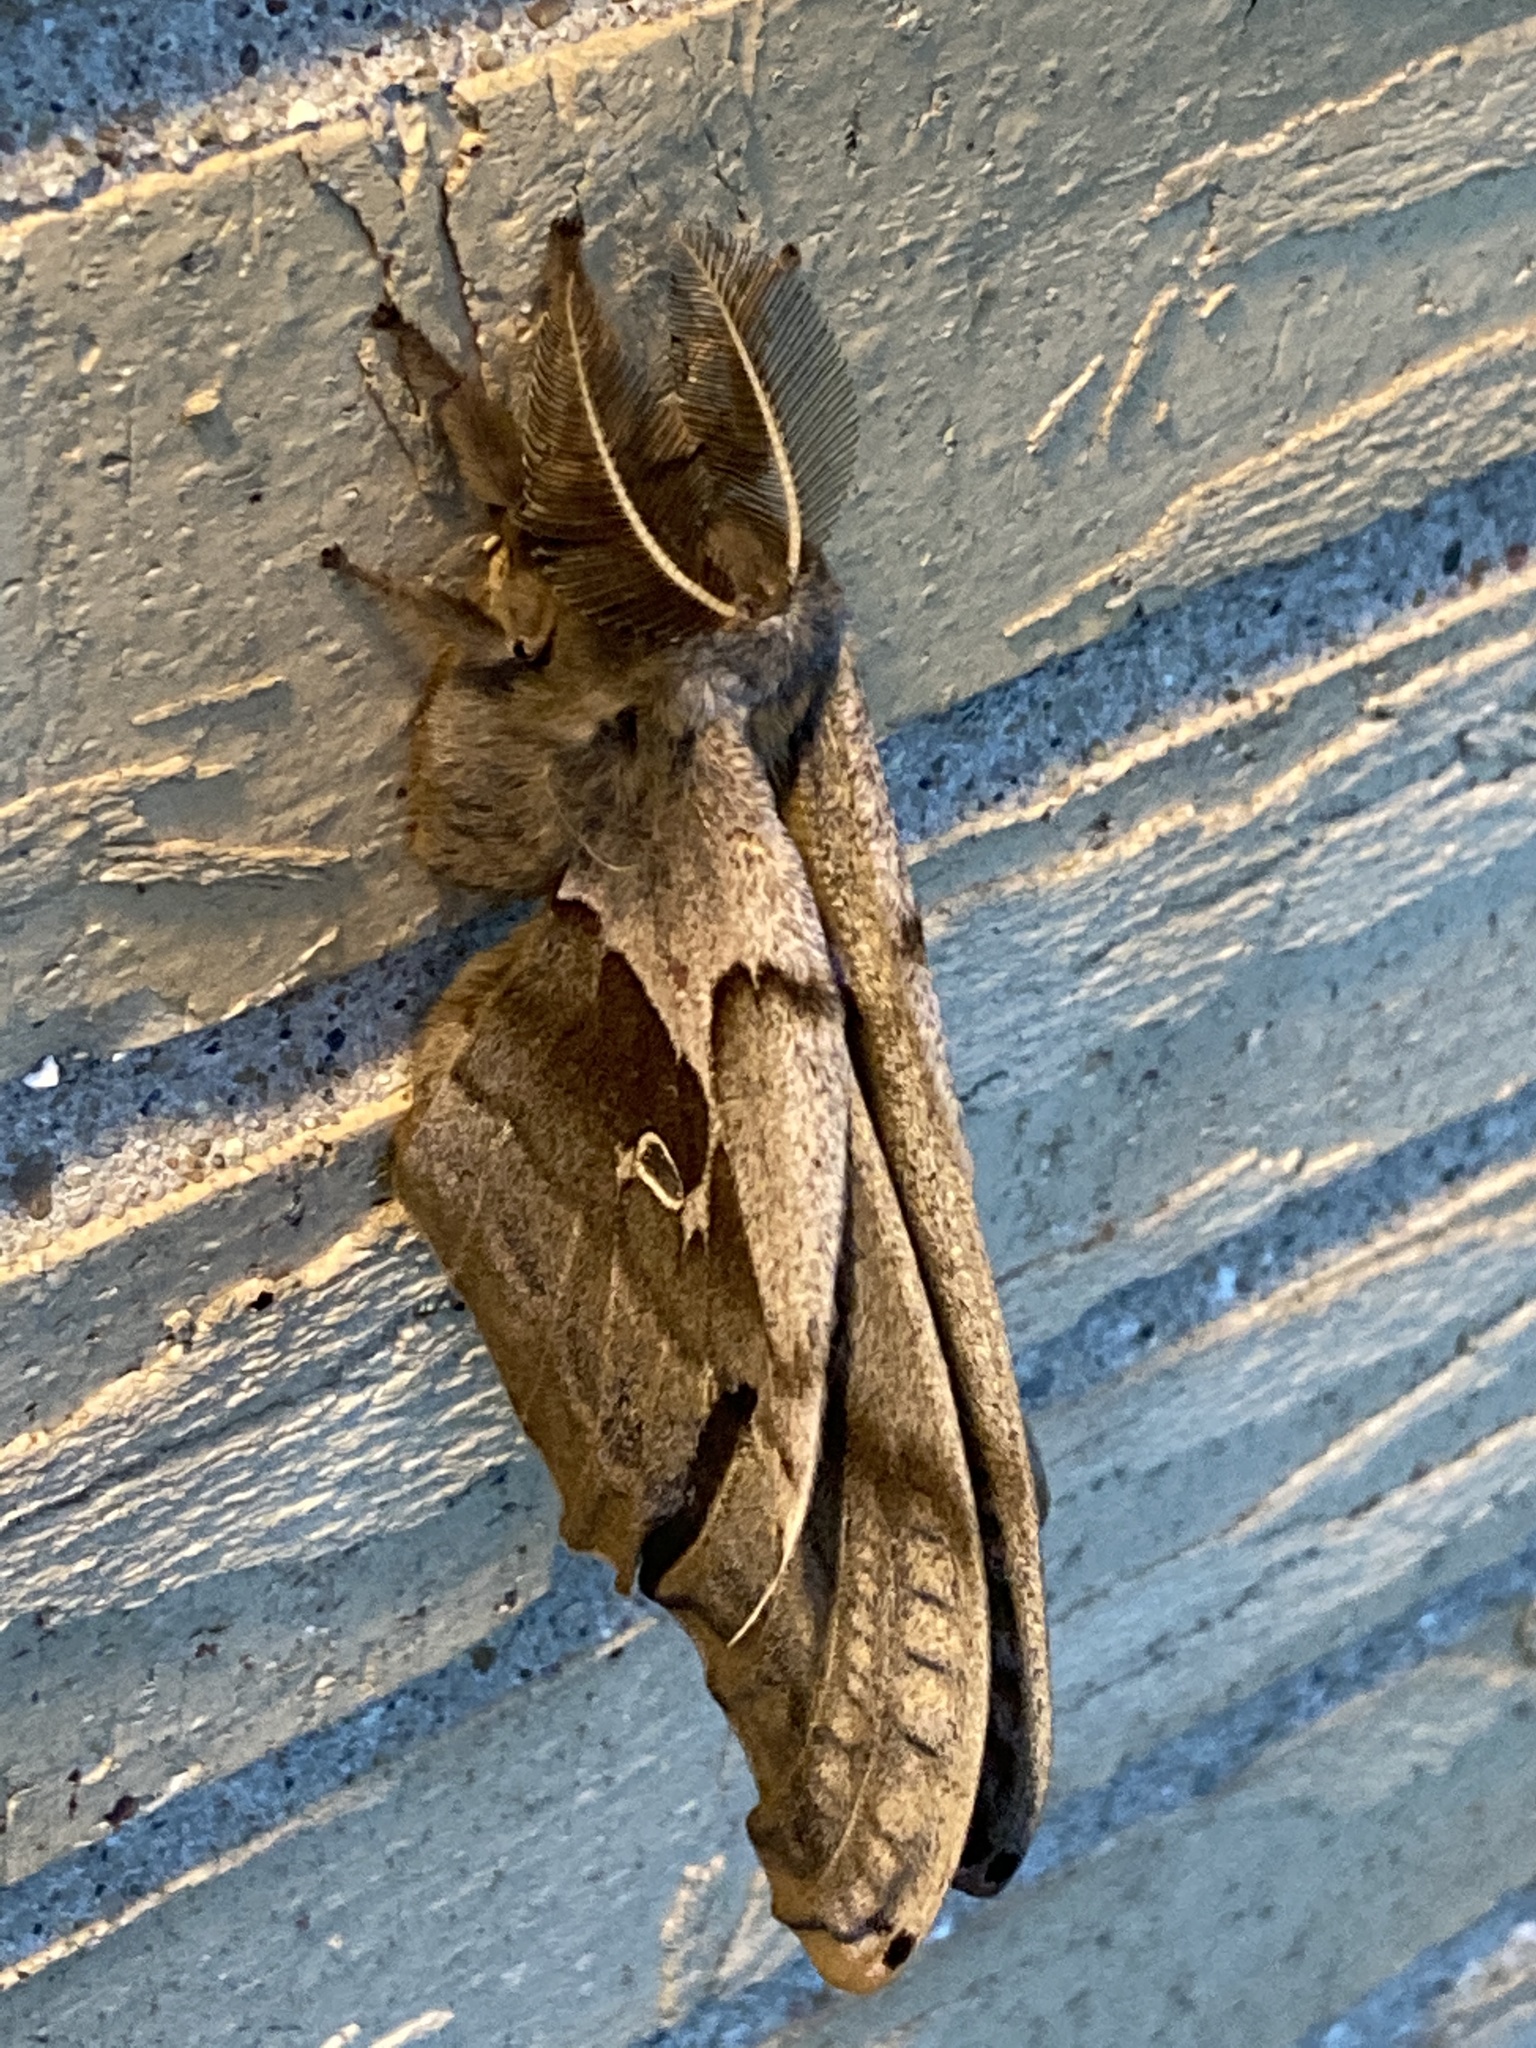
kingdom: Animalia
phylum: Arthropoda
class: Insecta
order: Lepidoptera
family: Saturniidae
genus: Antheraea
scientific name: Antheraea polyphemus
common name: Polyphemus moth
